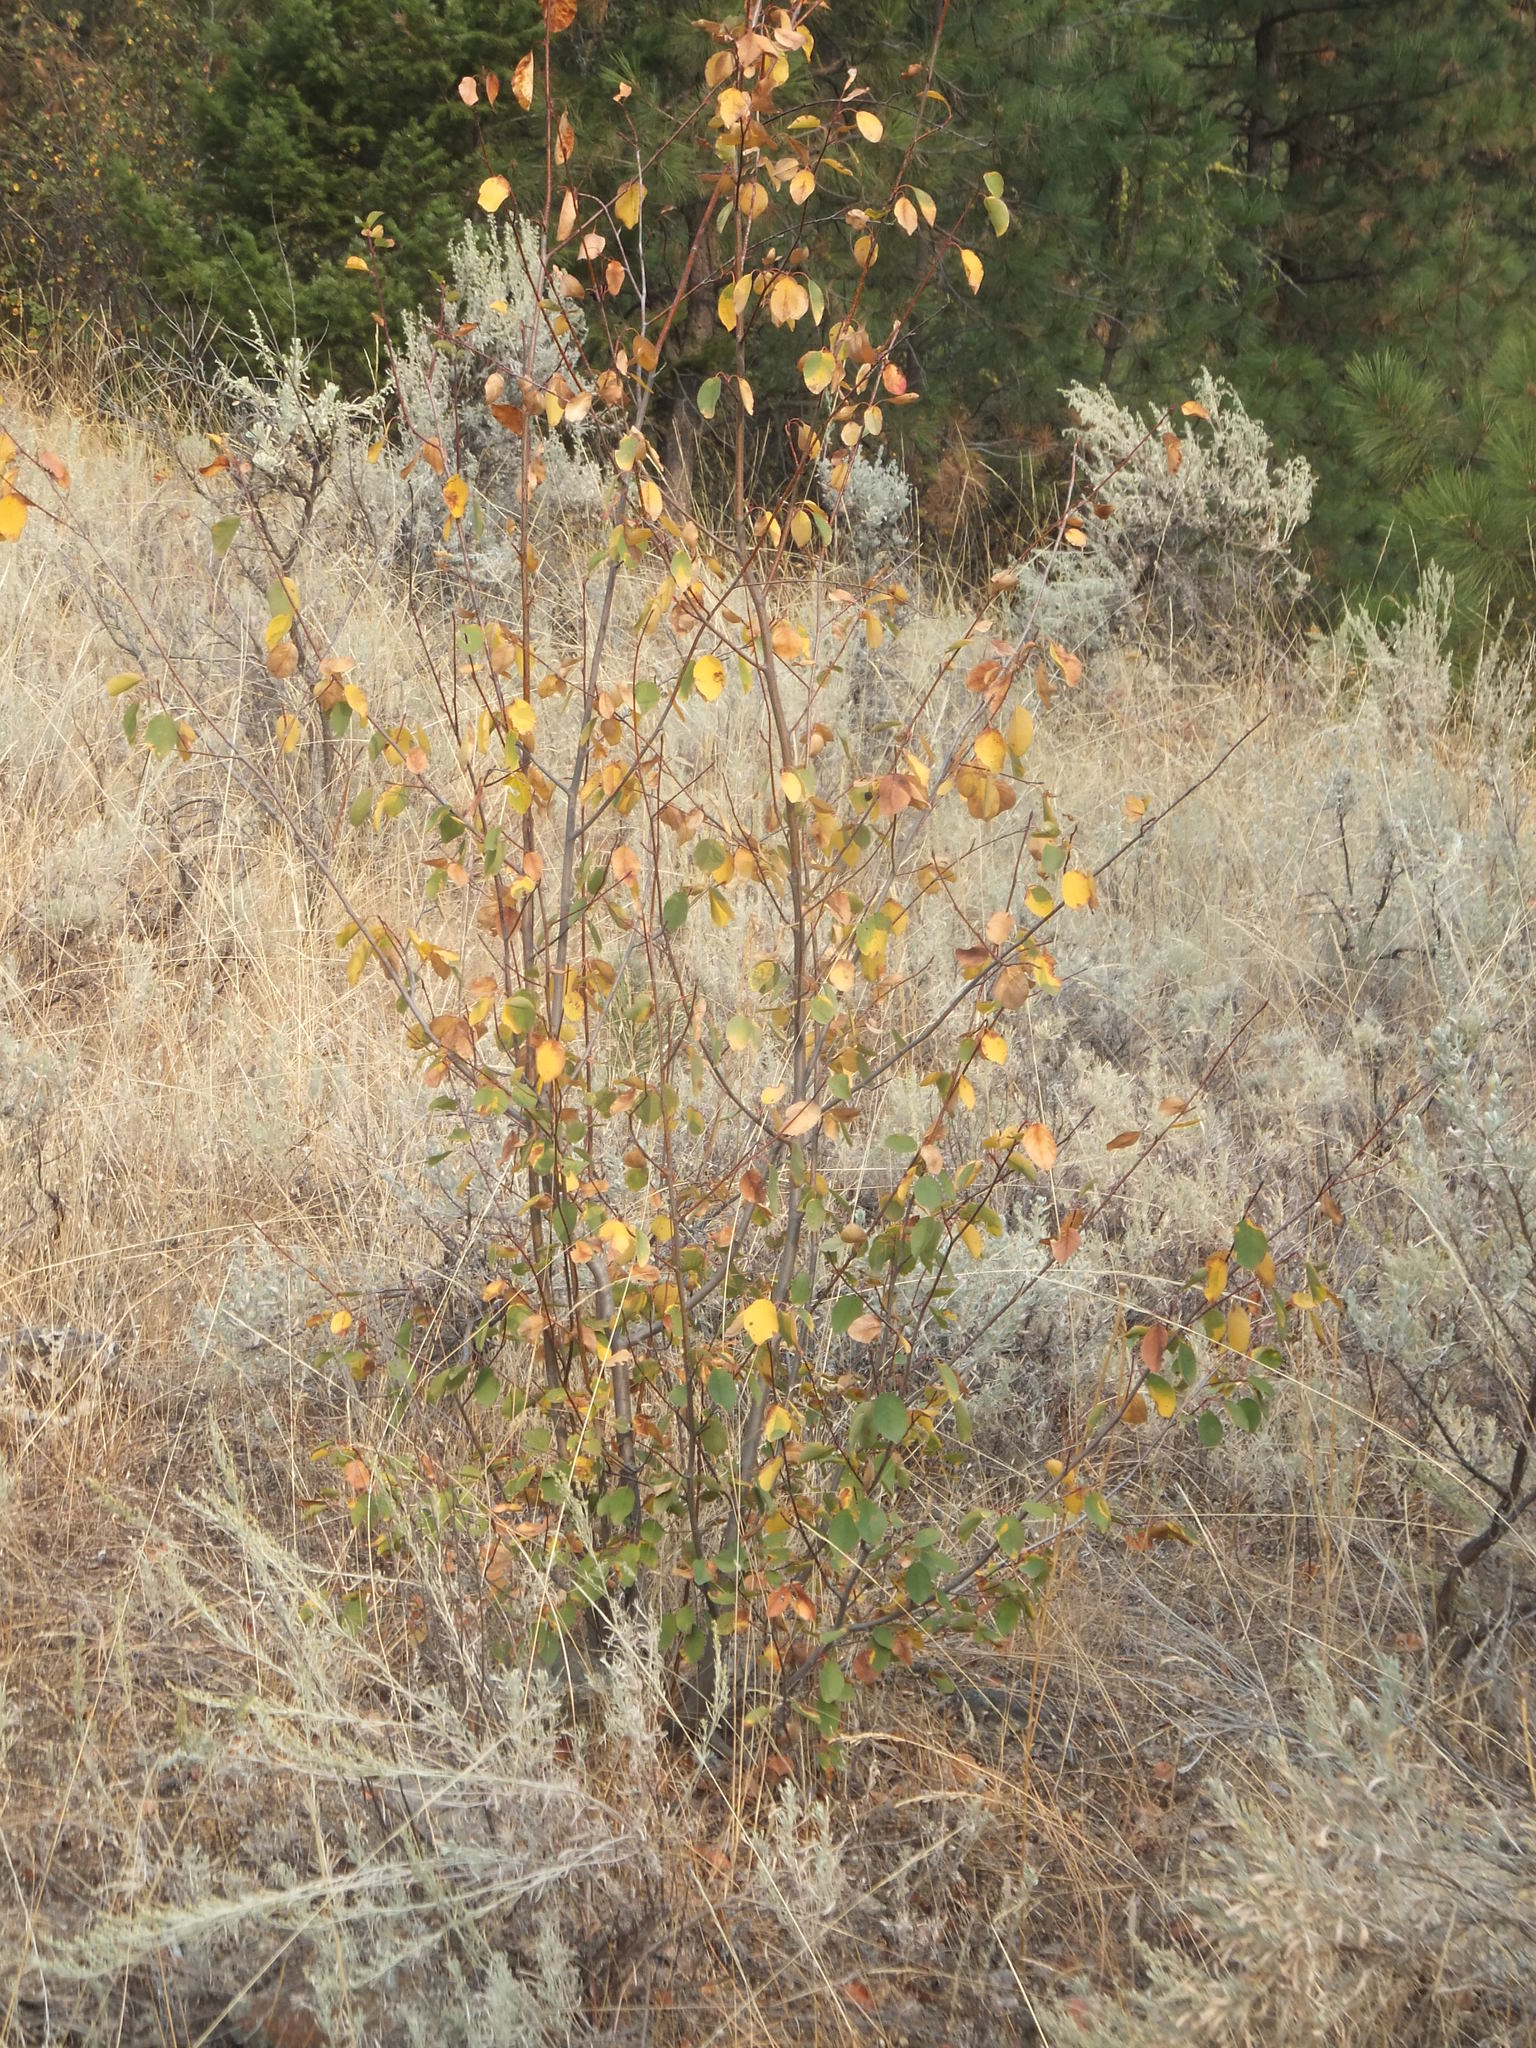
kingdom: Plantae
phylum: Tracheophyta
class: Magnoliopsida
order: Rosales
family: Rosaceae
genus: Amelanchier
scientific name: Amelanchier alnifolia
